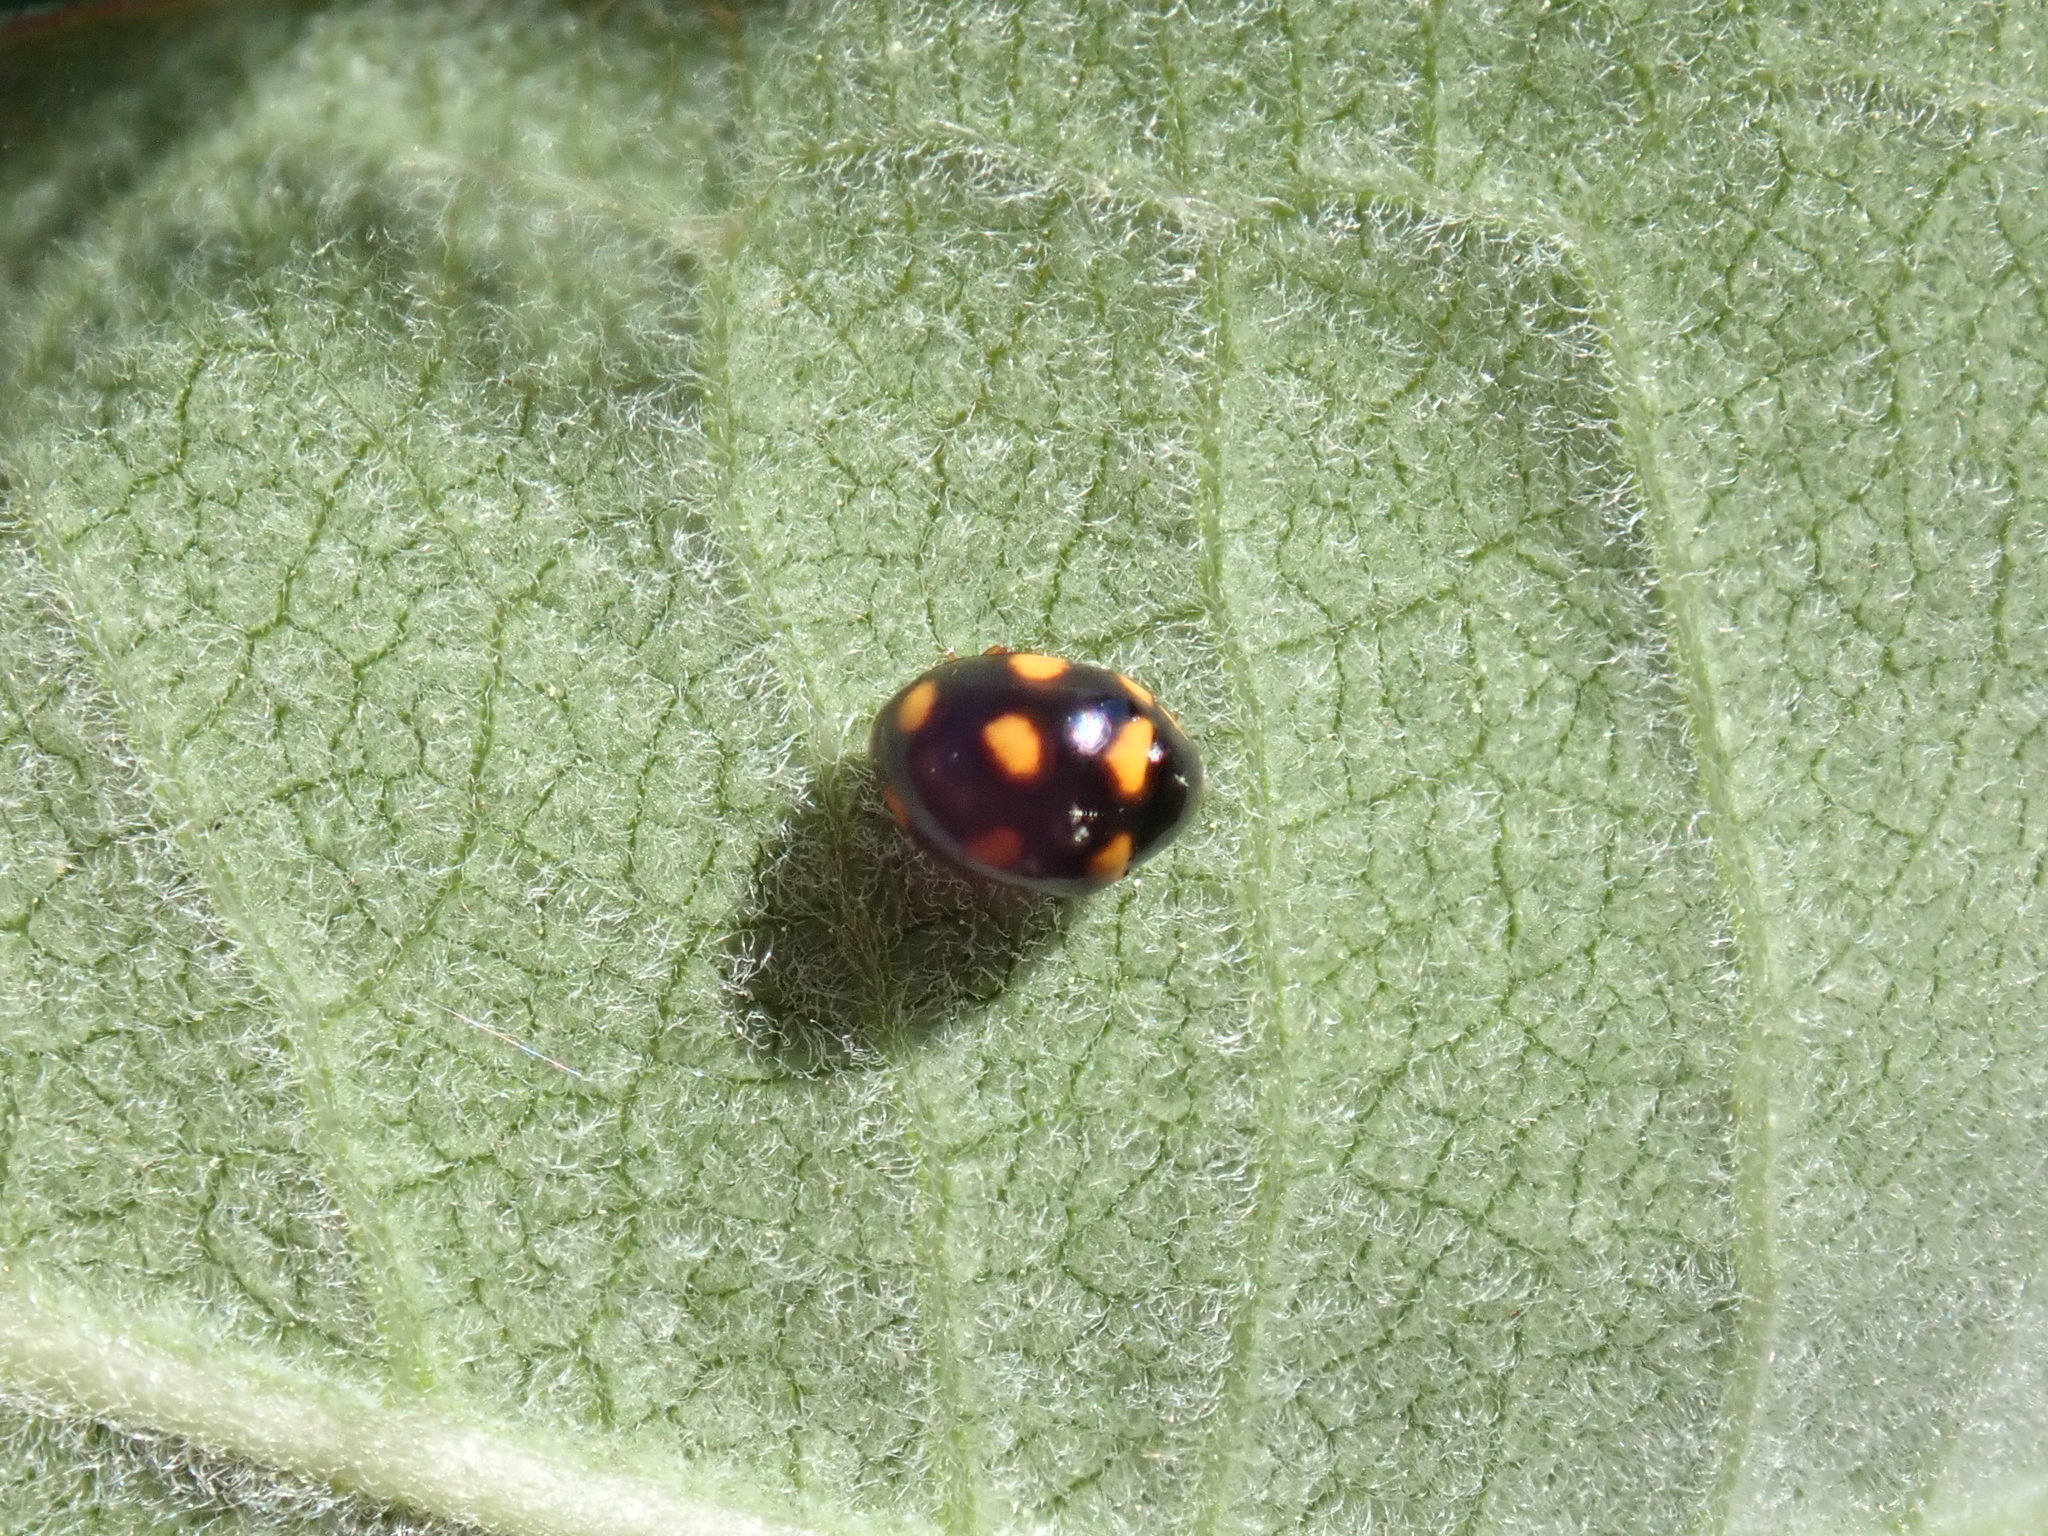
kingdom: Animalia
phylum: Arthropoda
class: Insecta
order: Coleoptera
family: Coccinellidae
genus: Brachiacantha
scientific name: Brachiacantha ursina
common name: Ursine spurleg lady beetle
